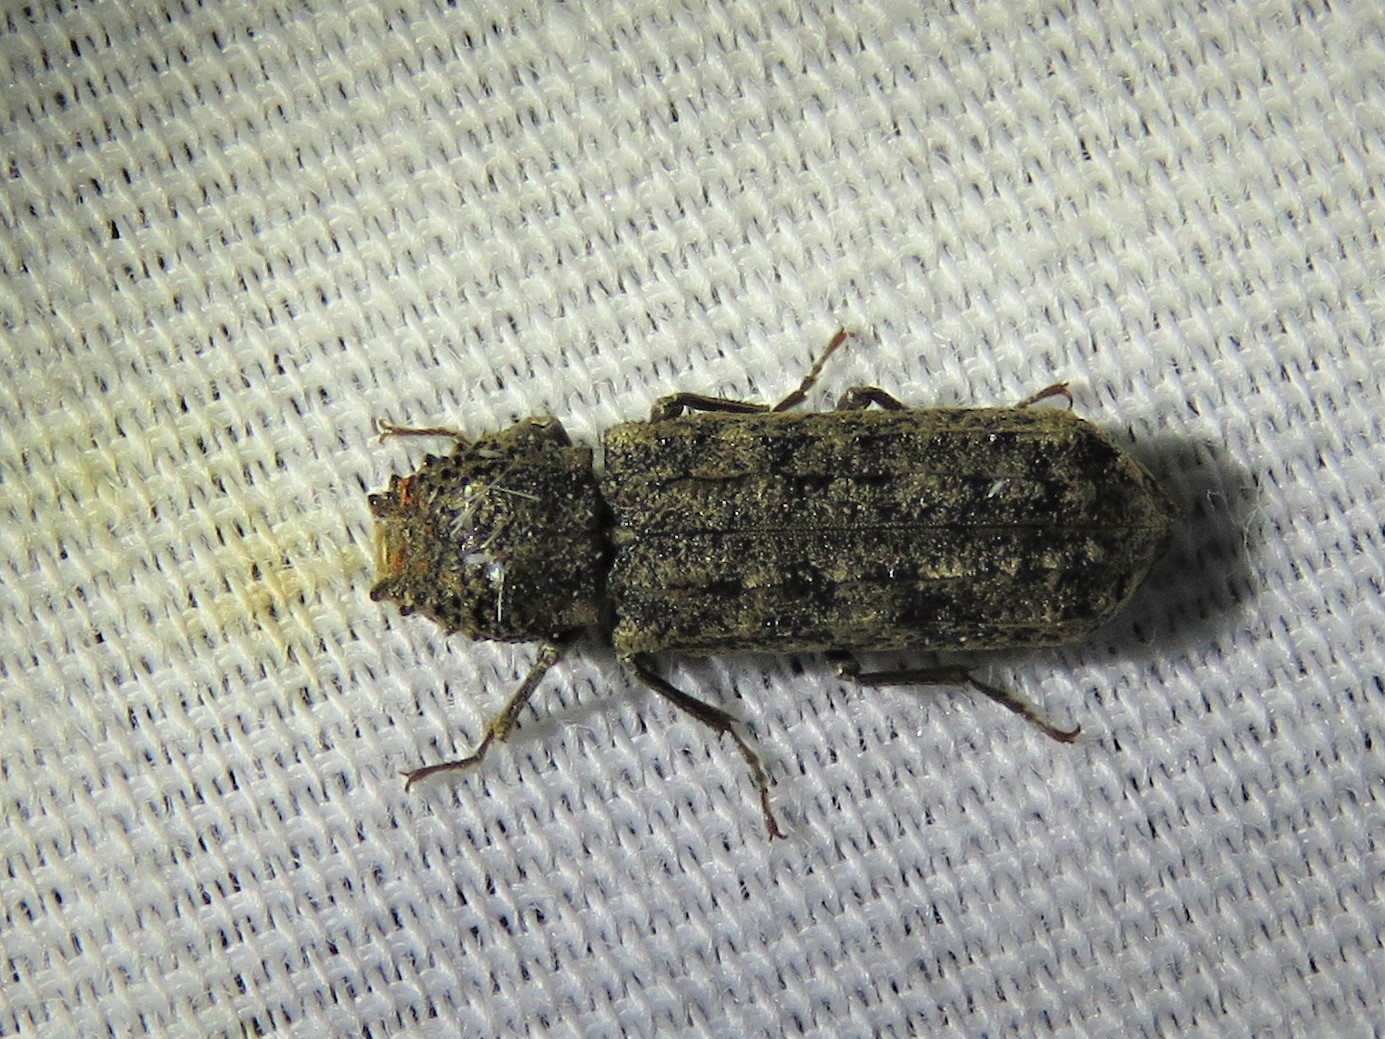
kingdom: Animalia
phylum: Arthropoda
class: Insecta
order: Coleoptera
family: Bostrichidae
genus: Lichenophanes
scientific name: Lichenophanes bicornis
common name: Two-horned powder-post beetle
